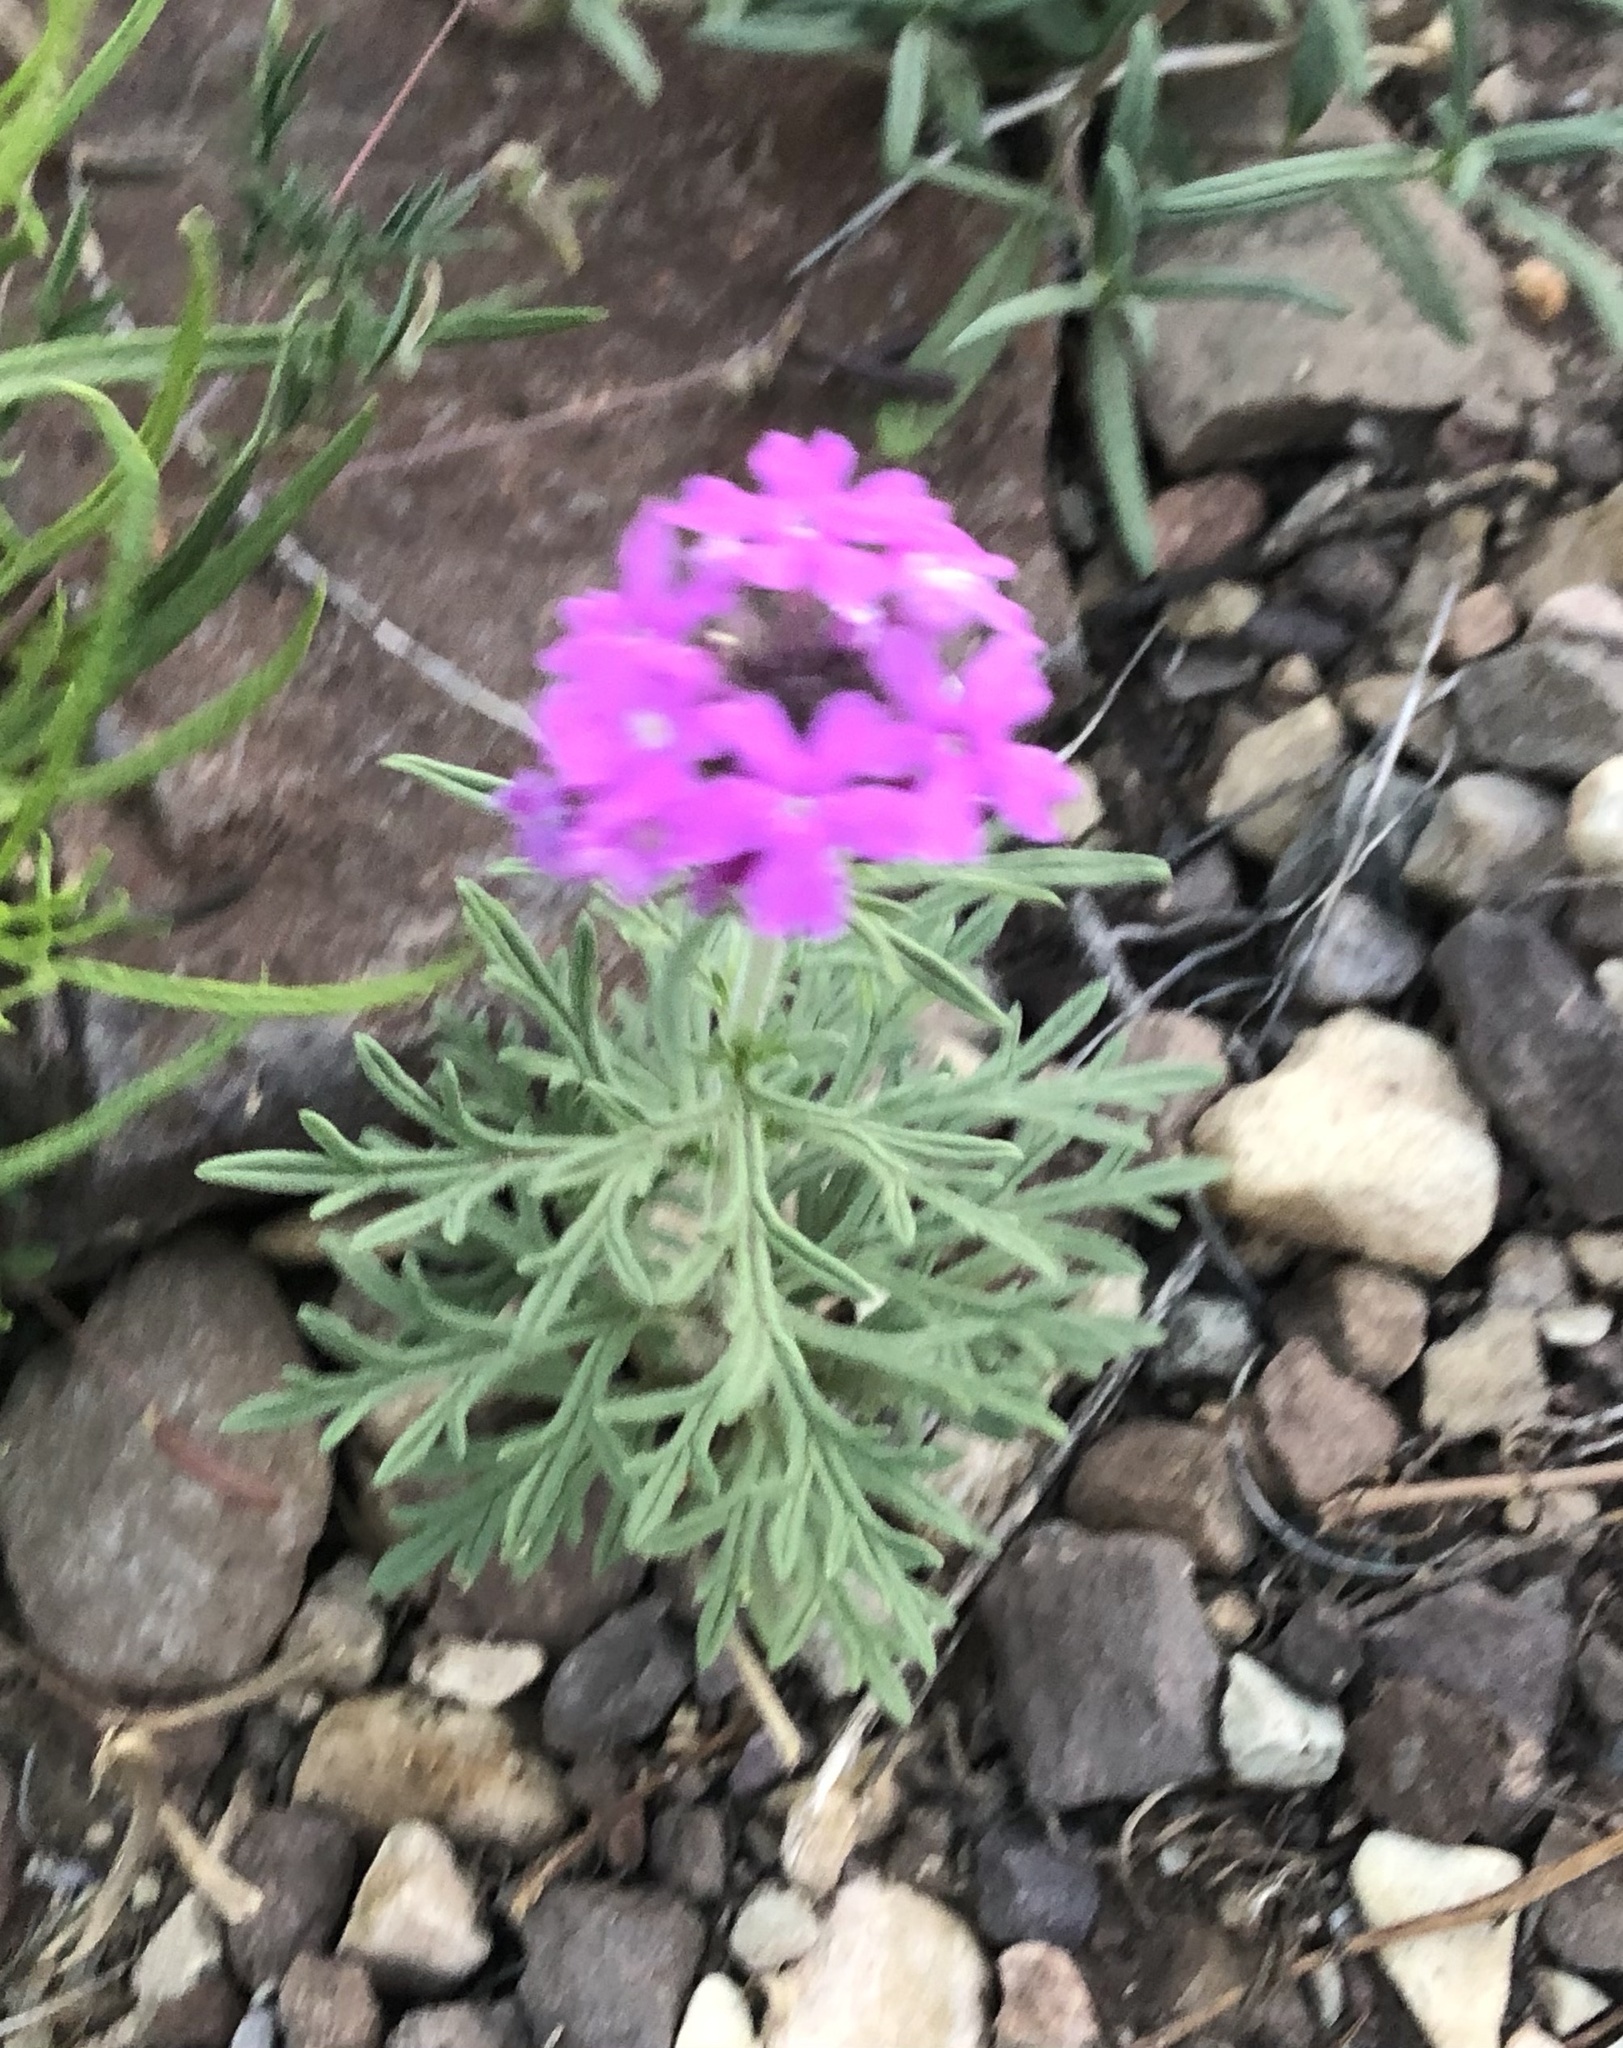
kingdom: Plantae
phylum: Tracheophyta
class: Magnoliopsida
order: Lamiales
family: Verbenaceae
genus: Verbena
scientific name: Verbena bipinnatifida
